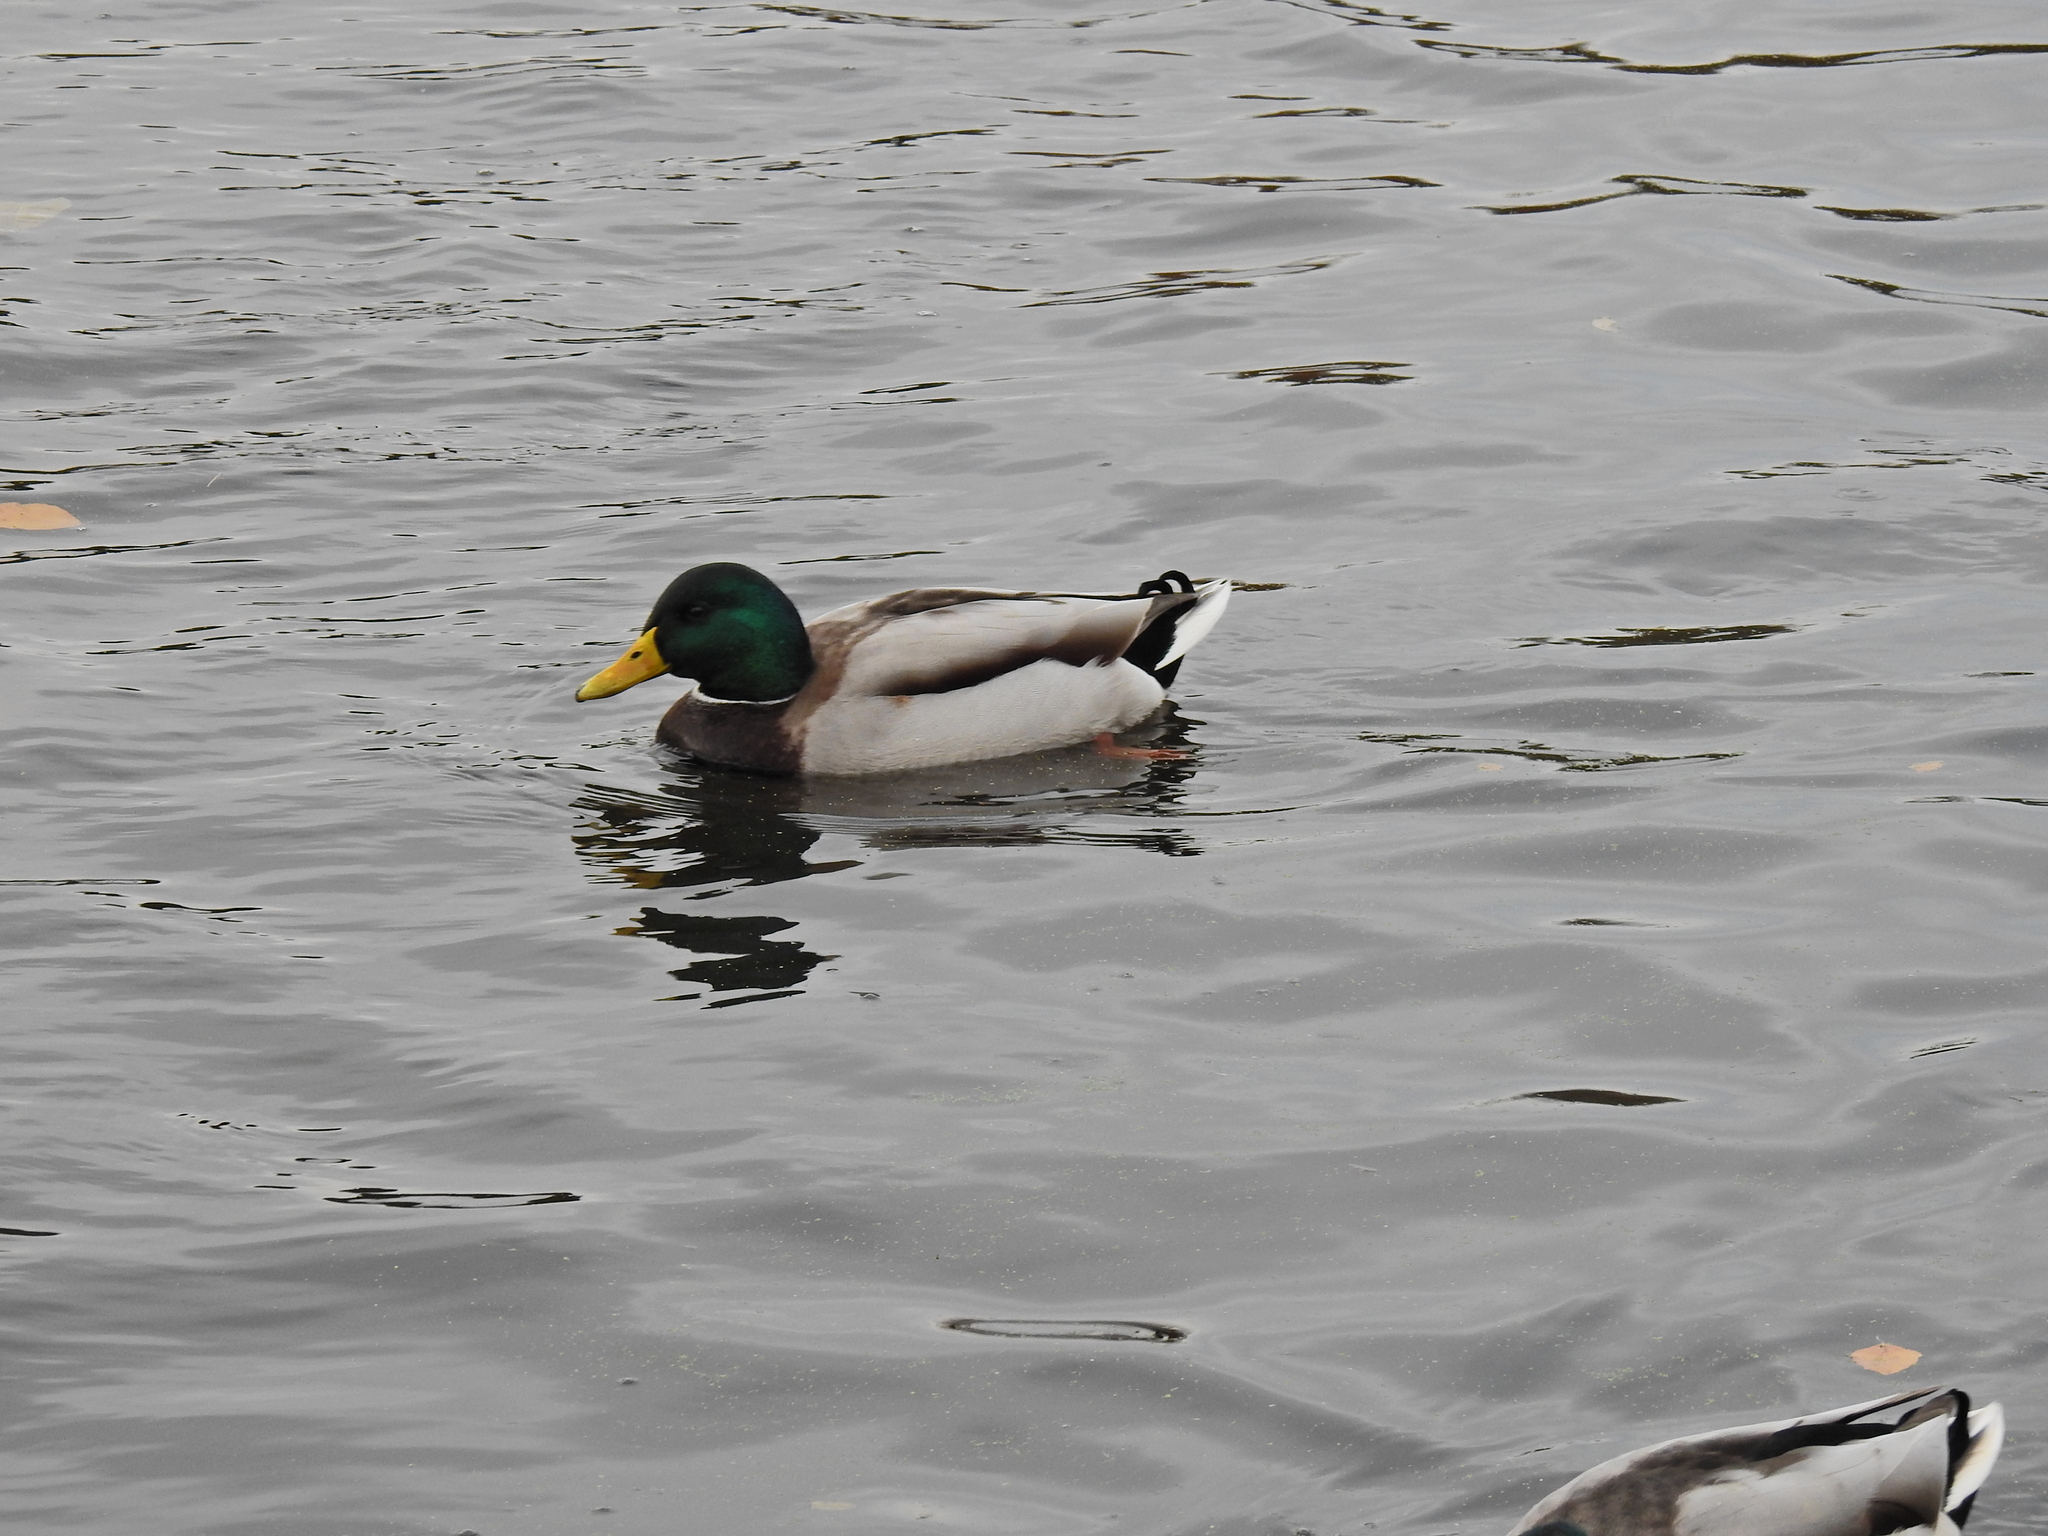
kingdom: Animalia
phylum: Chordata
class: Aves
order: Anseriformes
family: Anatidae
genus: Anas
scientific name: Anas platyrhynchos
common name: Mallard
